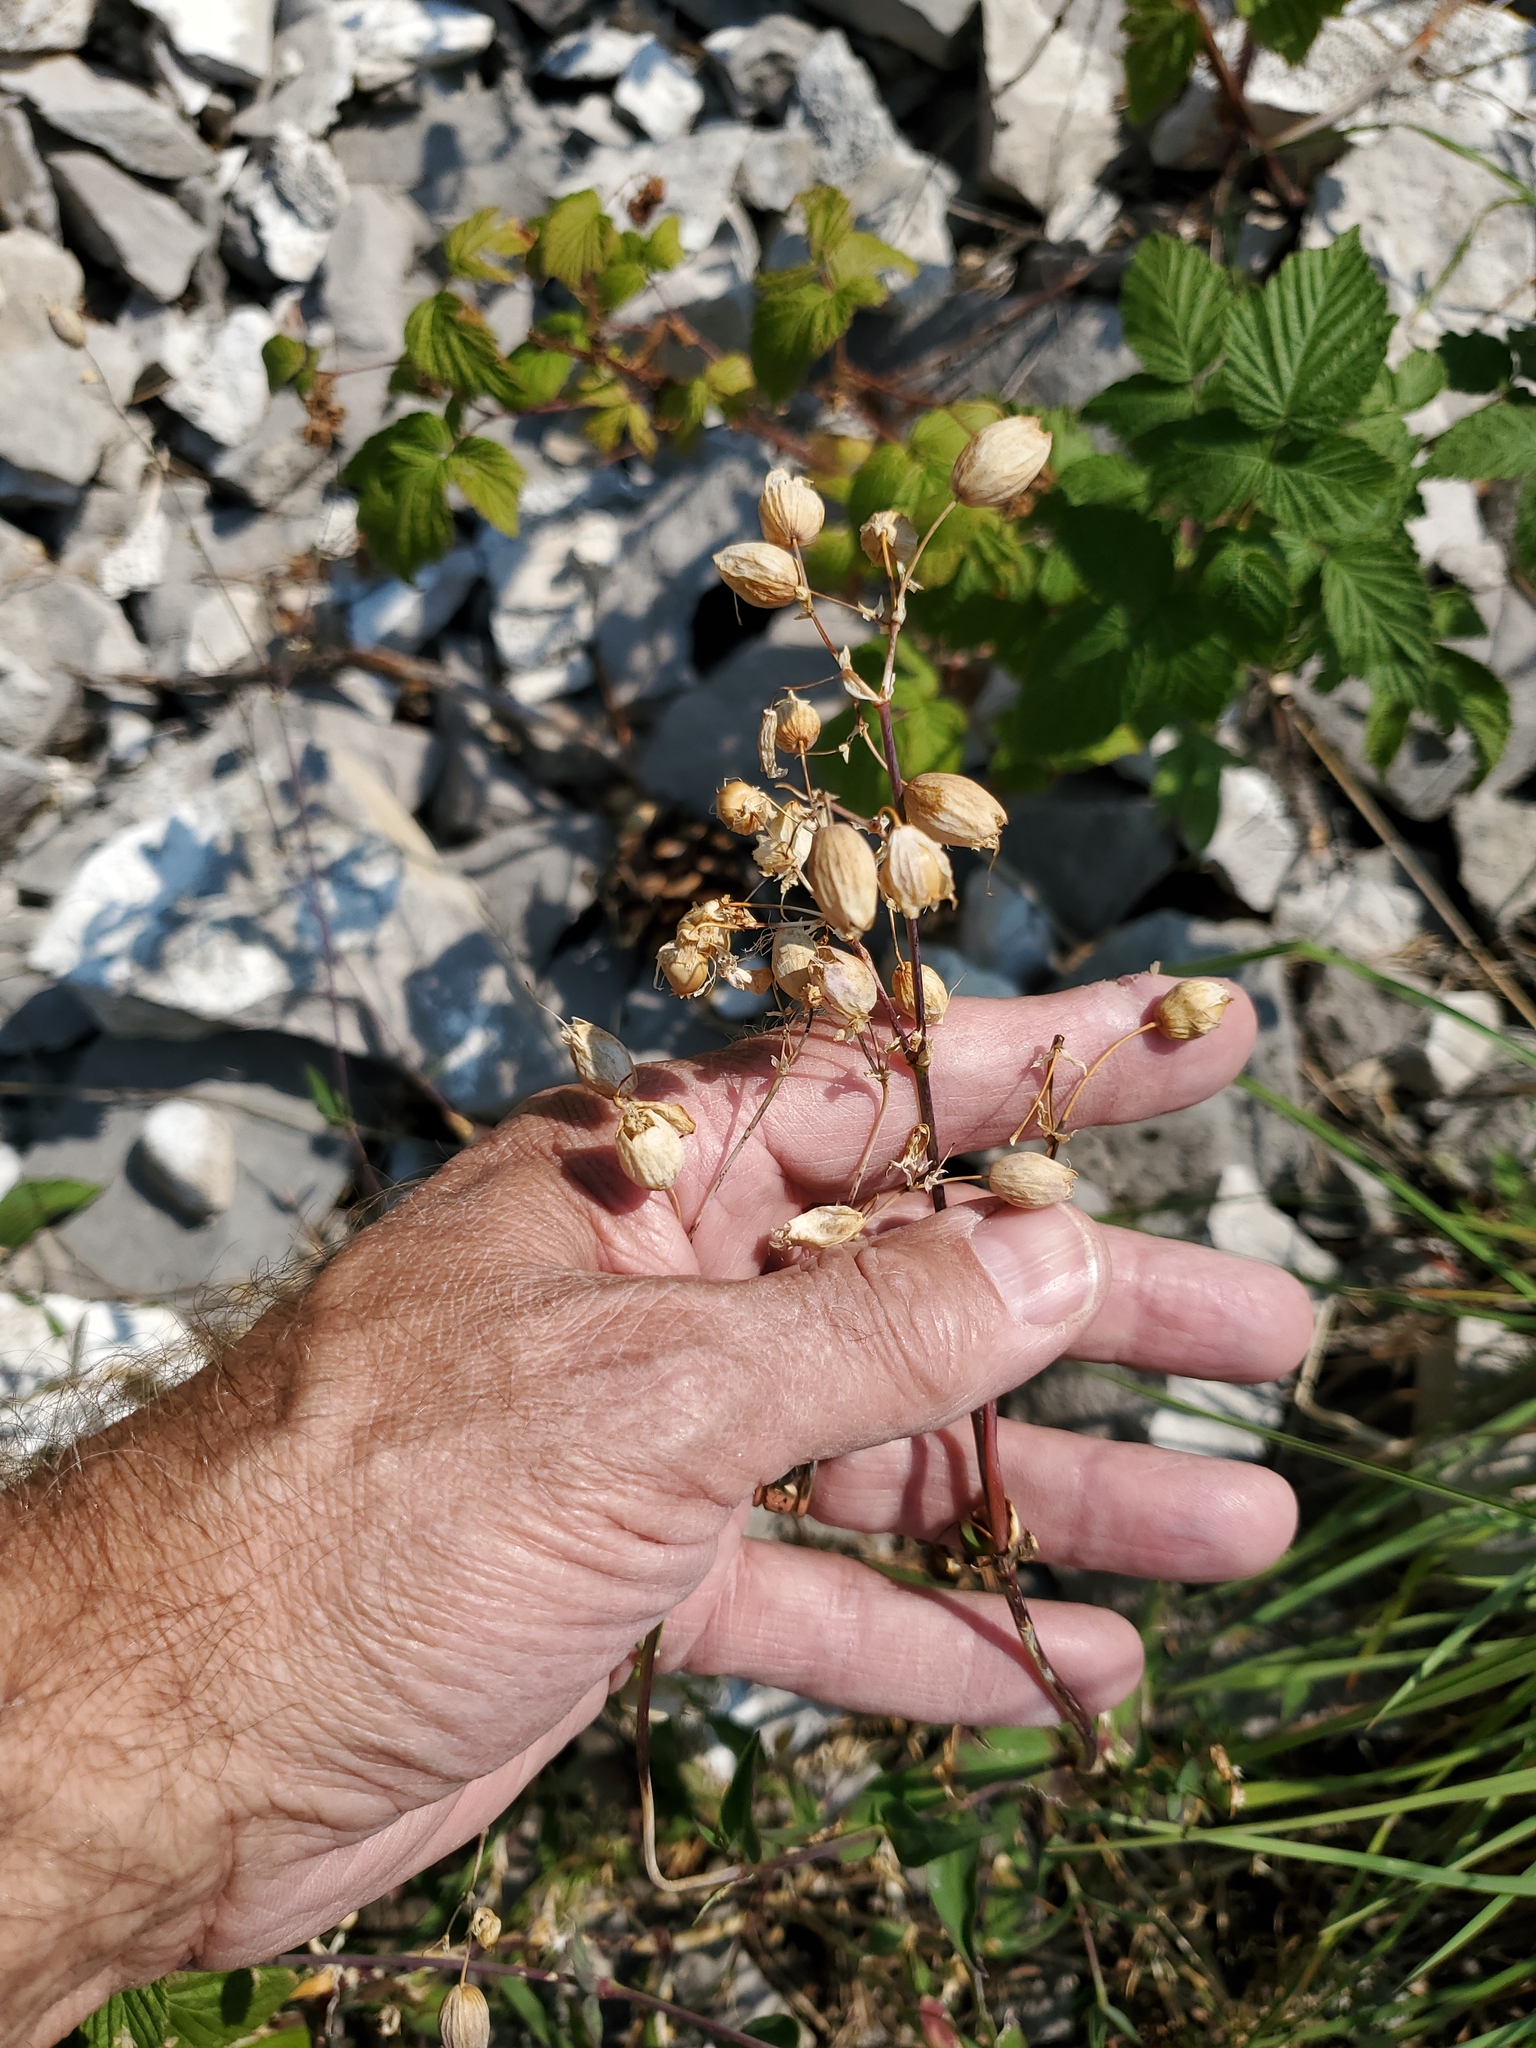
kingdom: Plantae
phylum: Tracheophyta
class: Magnoliopsida
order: Caryophyllales
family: Caryophyllaceae
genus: Silene
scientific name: Silene vulgaris
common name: Bladder campion
